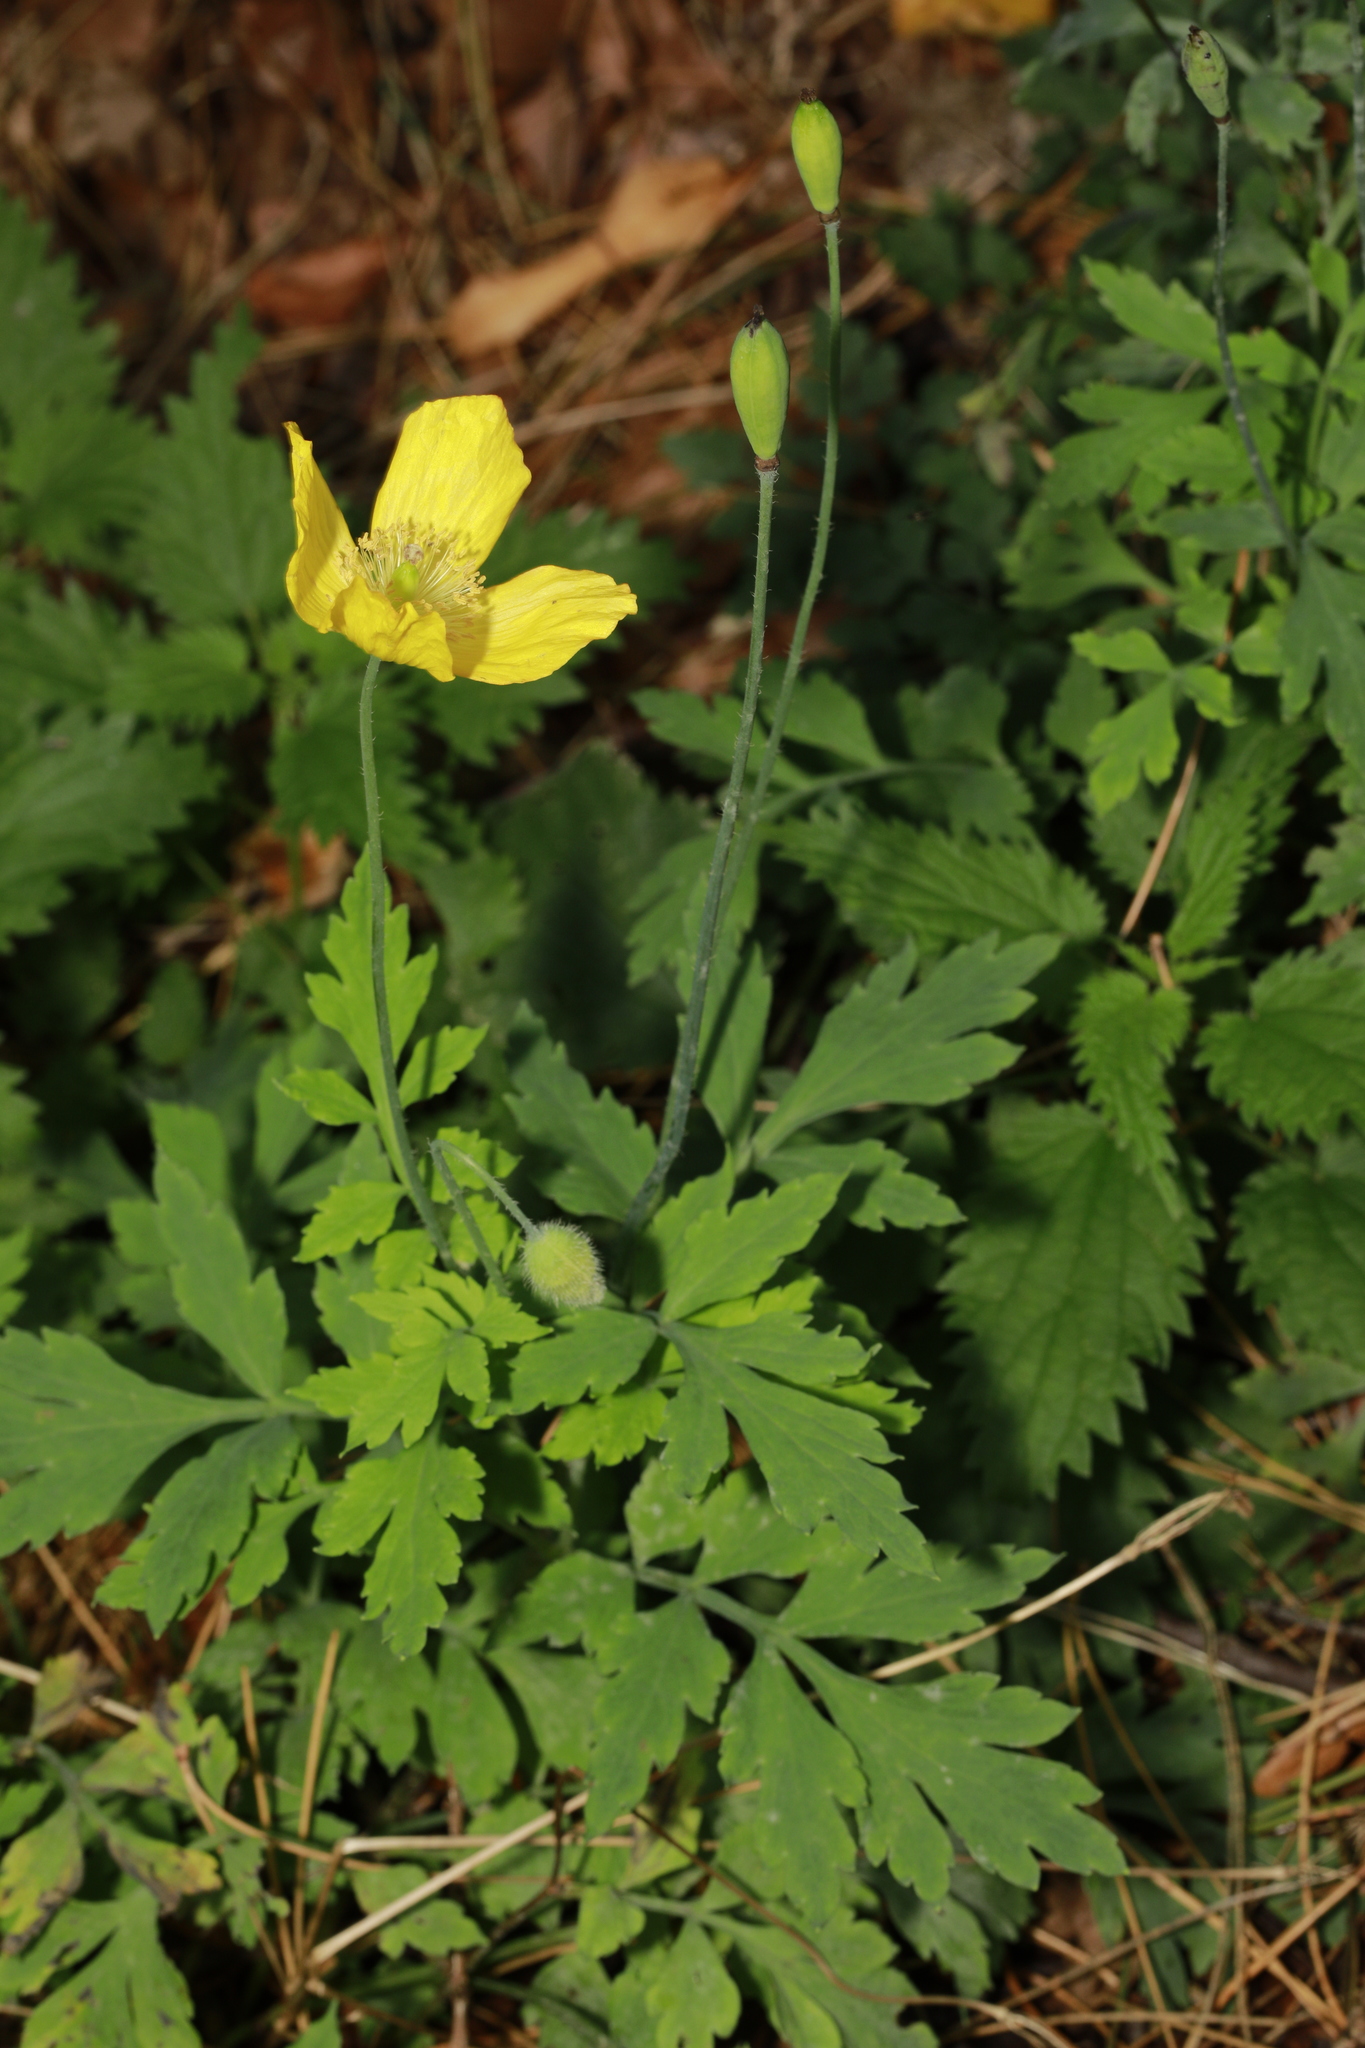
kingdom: Plantae
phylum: Tracheophyta
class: Magnoliopsida
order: Ranunculales
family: Papaveraceae
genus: Papaver
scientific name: Papaver cambricum
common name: Poppy
